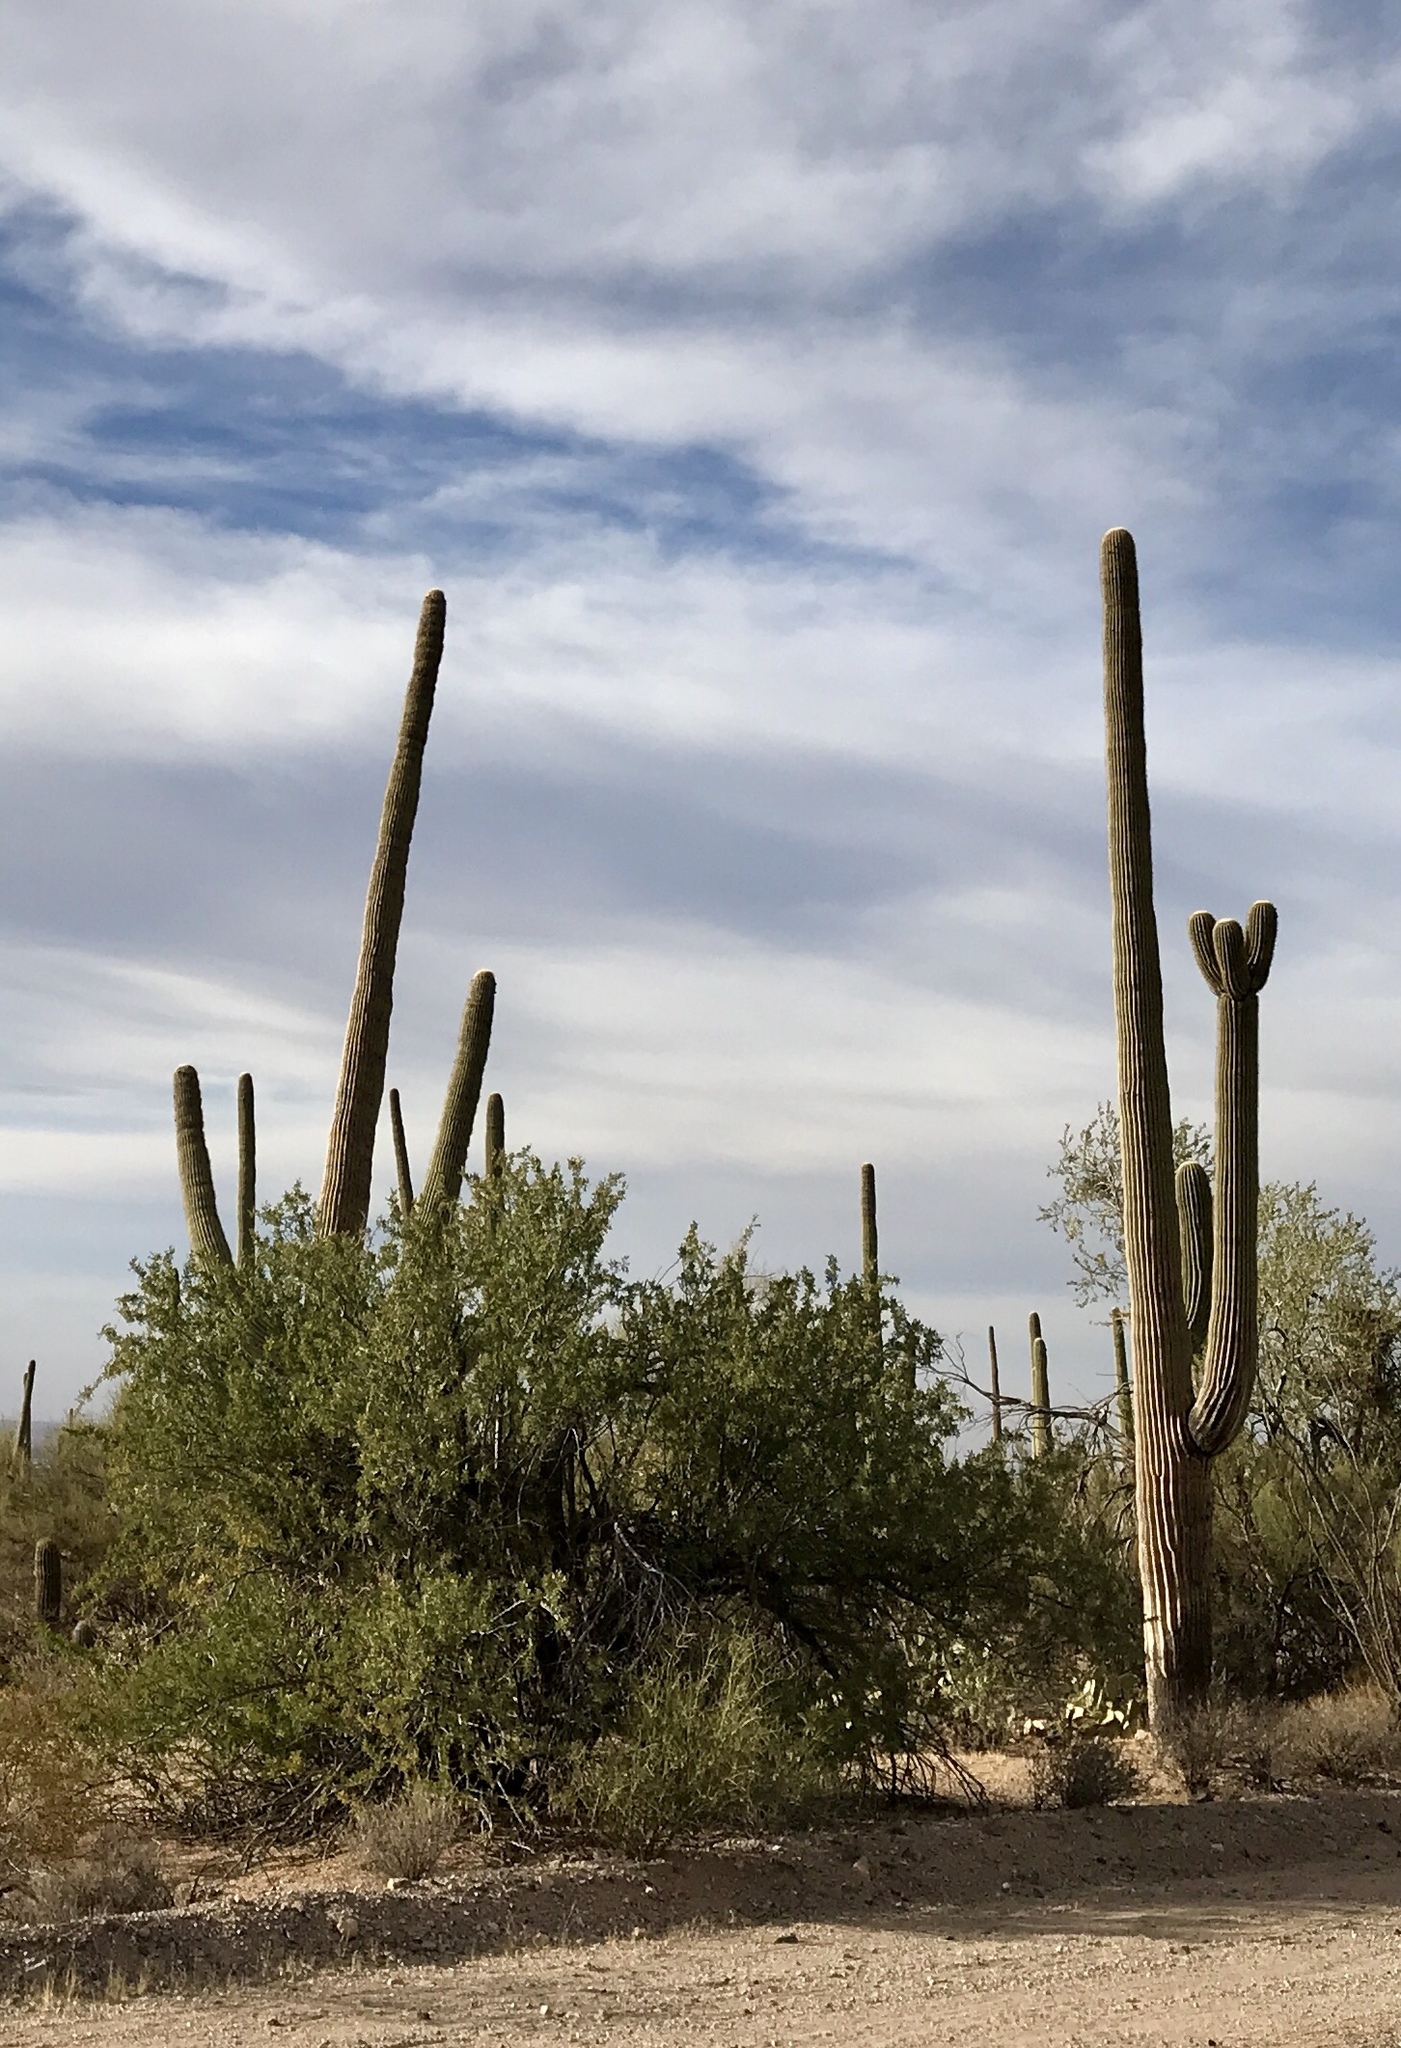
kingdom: Plantae
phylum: Tracheophyta
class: Magnoliopsida
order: Caryophyllales
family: Cactaceae
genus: Carnegiea
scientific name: Carnegiea gigantea
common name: Saguaro
